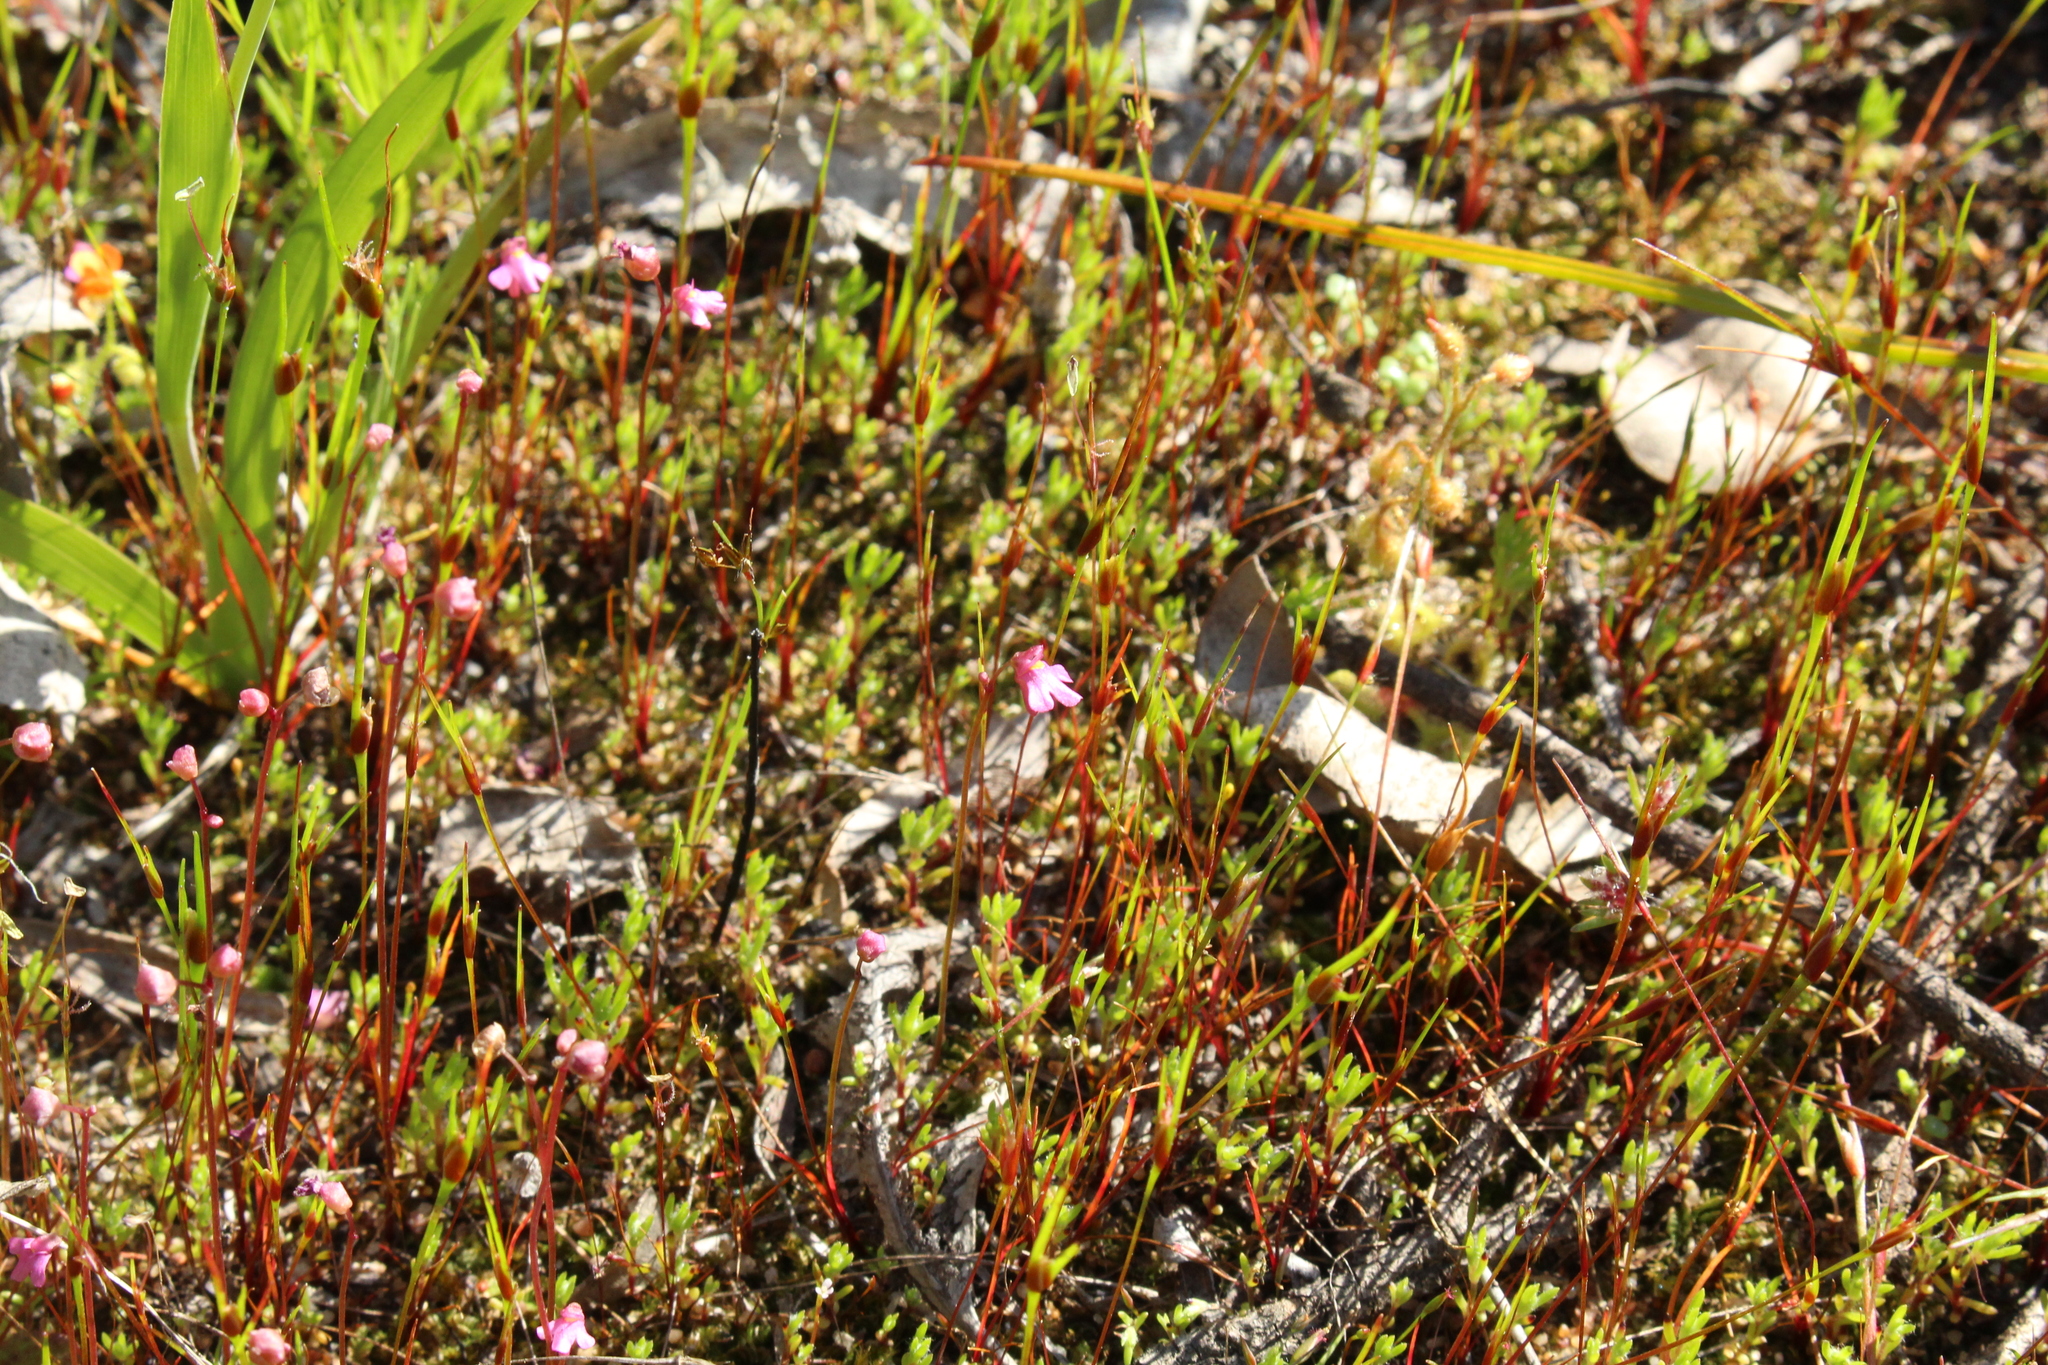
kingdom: Plantae
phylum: Tracheophyta
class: Magnoliopsida
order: Lamiales
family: Lentibulariaceae
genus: Utricularia
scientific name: Utricularia tenella
